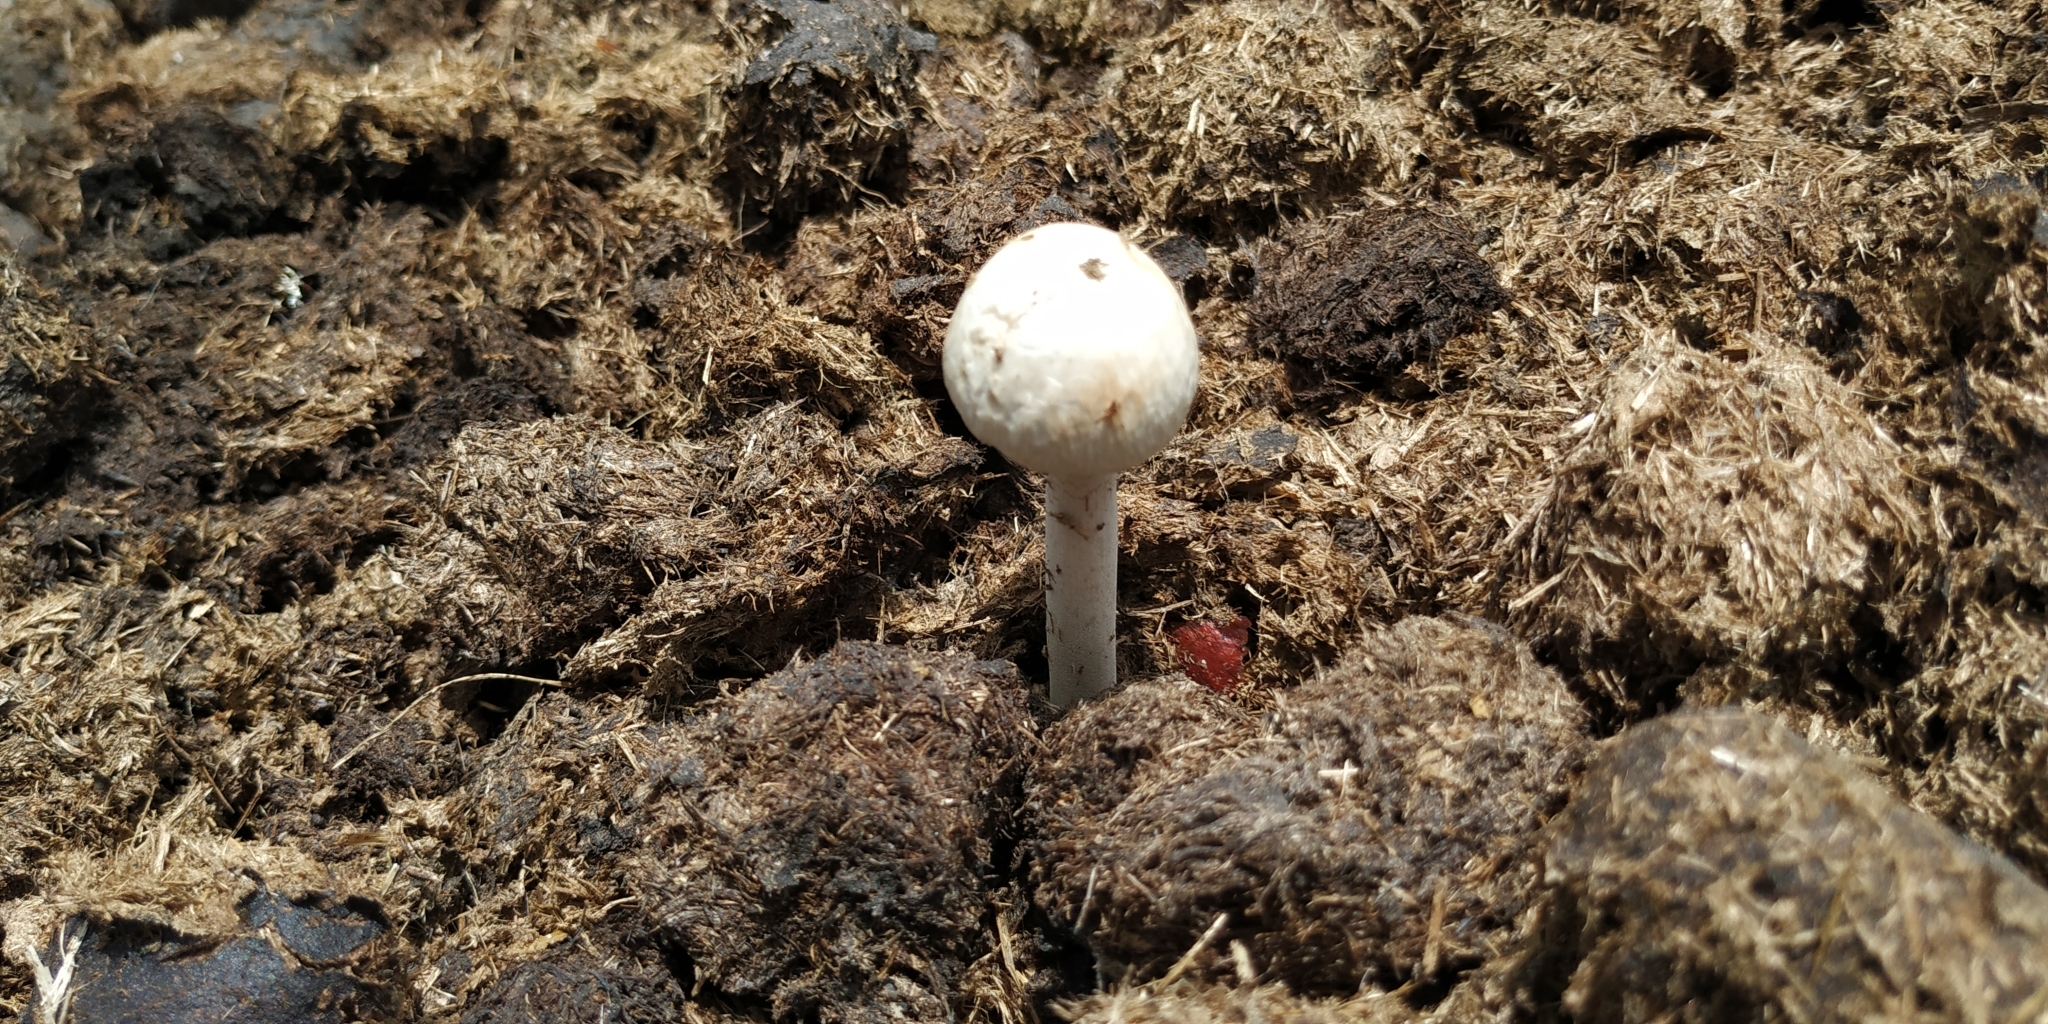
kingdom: Fungi
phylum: Basidiomycota
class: Agaricomycetes
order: Agaricales
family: Bolbitiaceae
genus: Panaeolus
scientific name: Panaeolus antillarum
